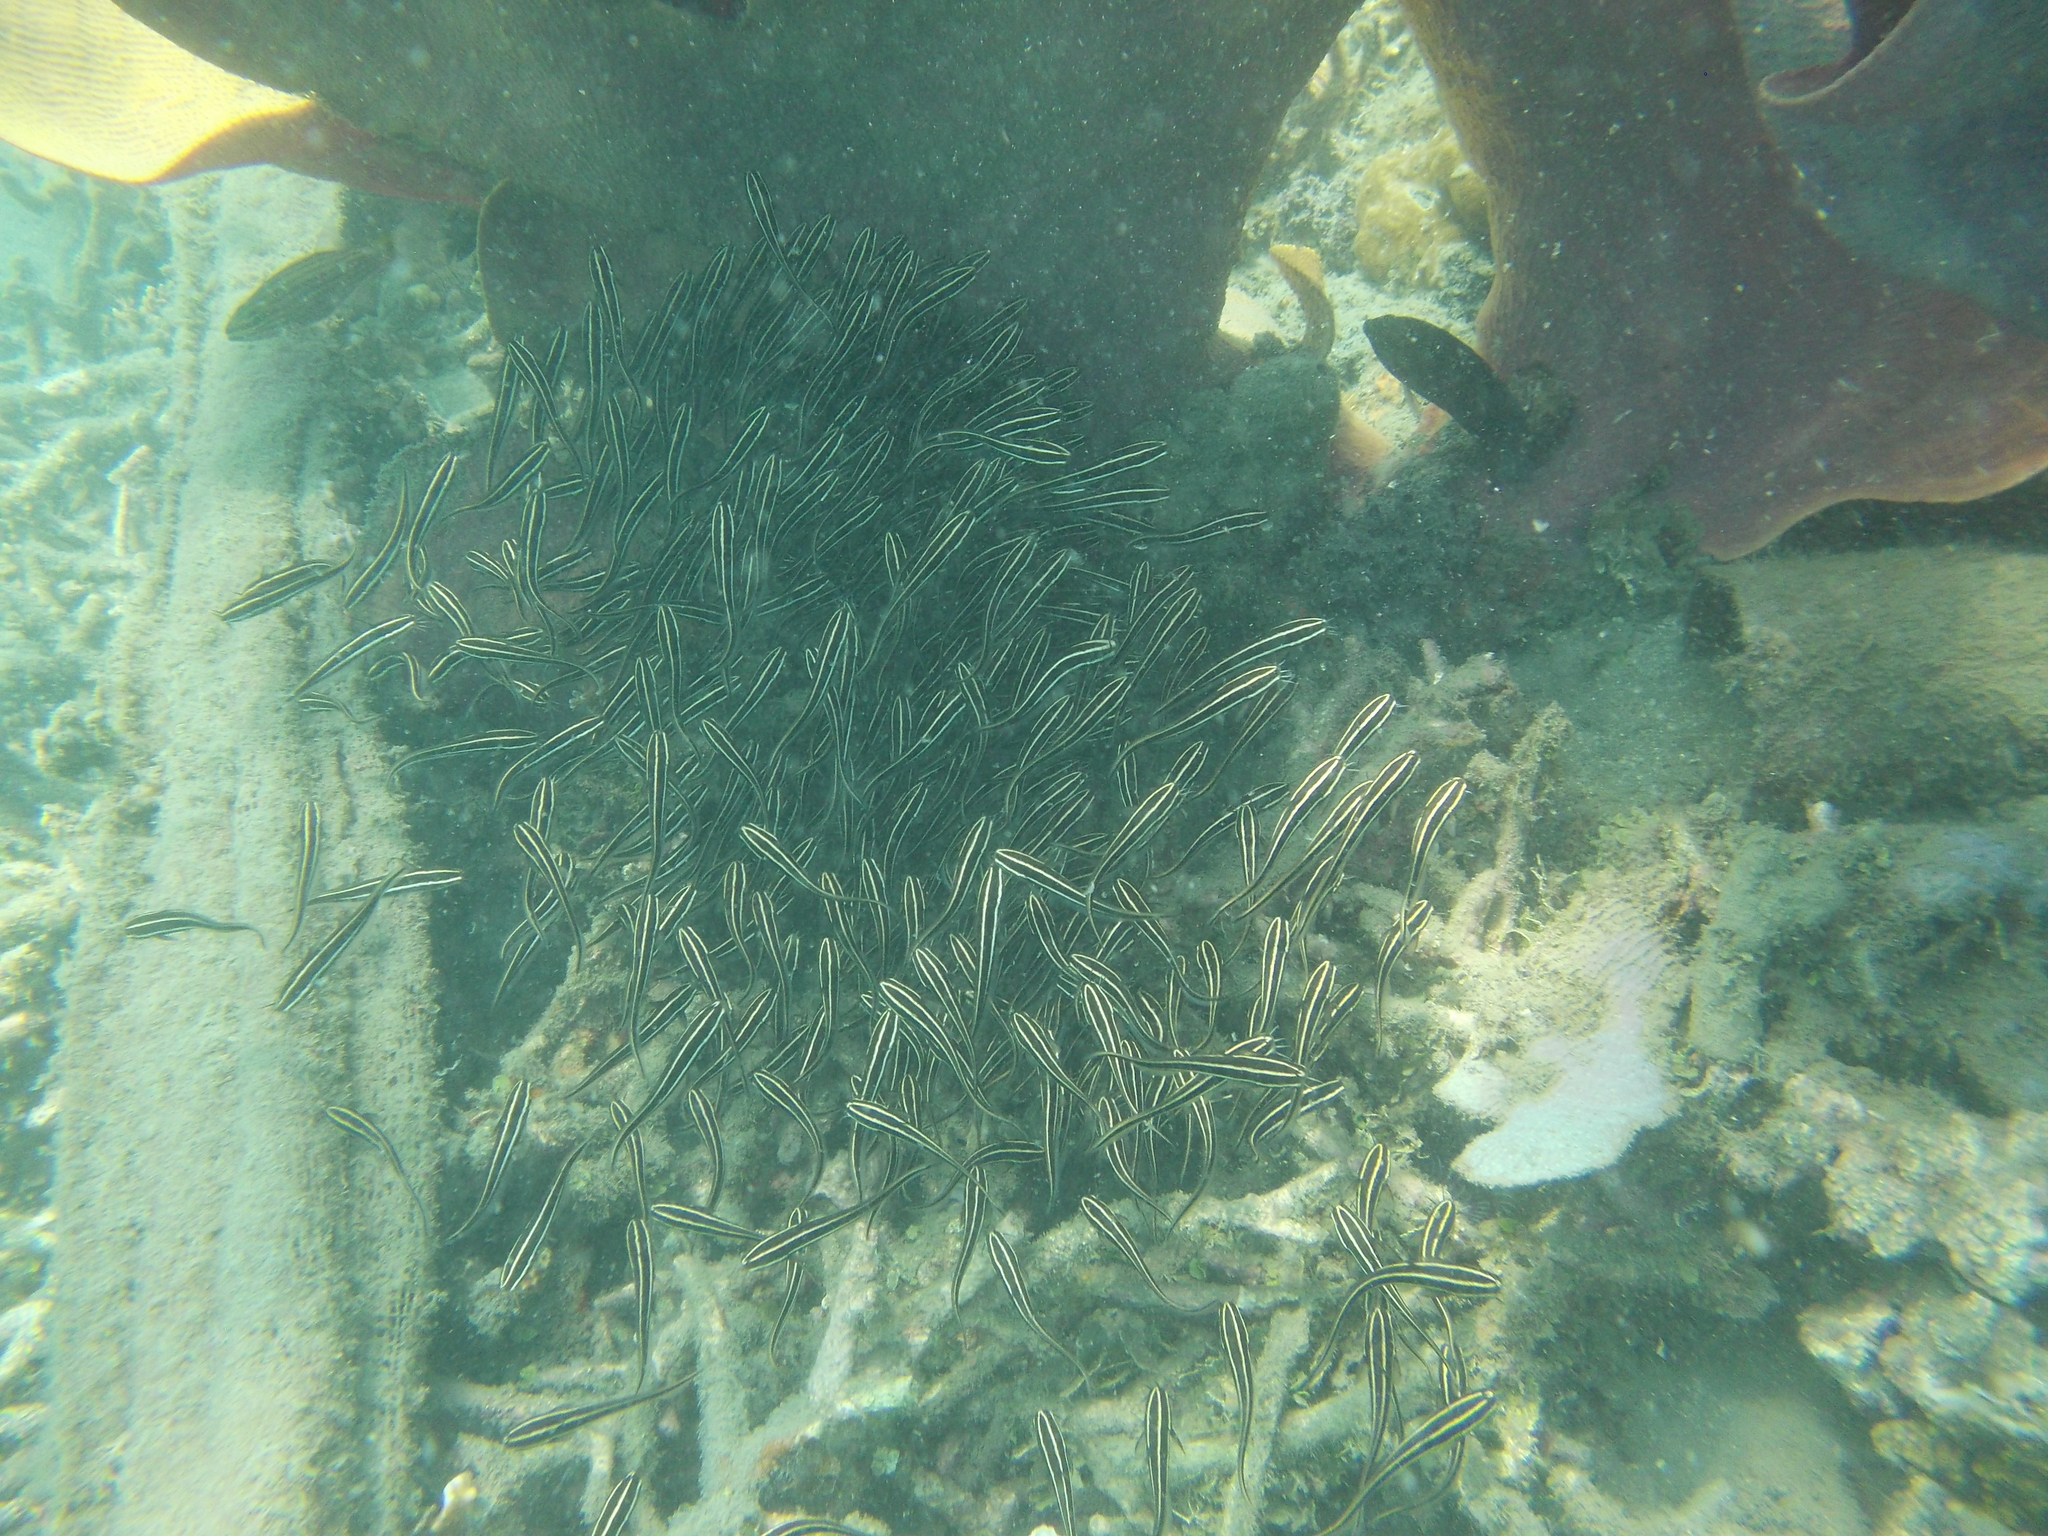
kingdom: Animalia
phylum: Chordata
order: Siluriformes
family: Plotosidae
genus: Plotosus
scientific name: Plotosus lineatus
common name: Striped eel catfish
